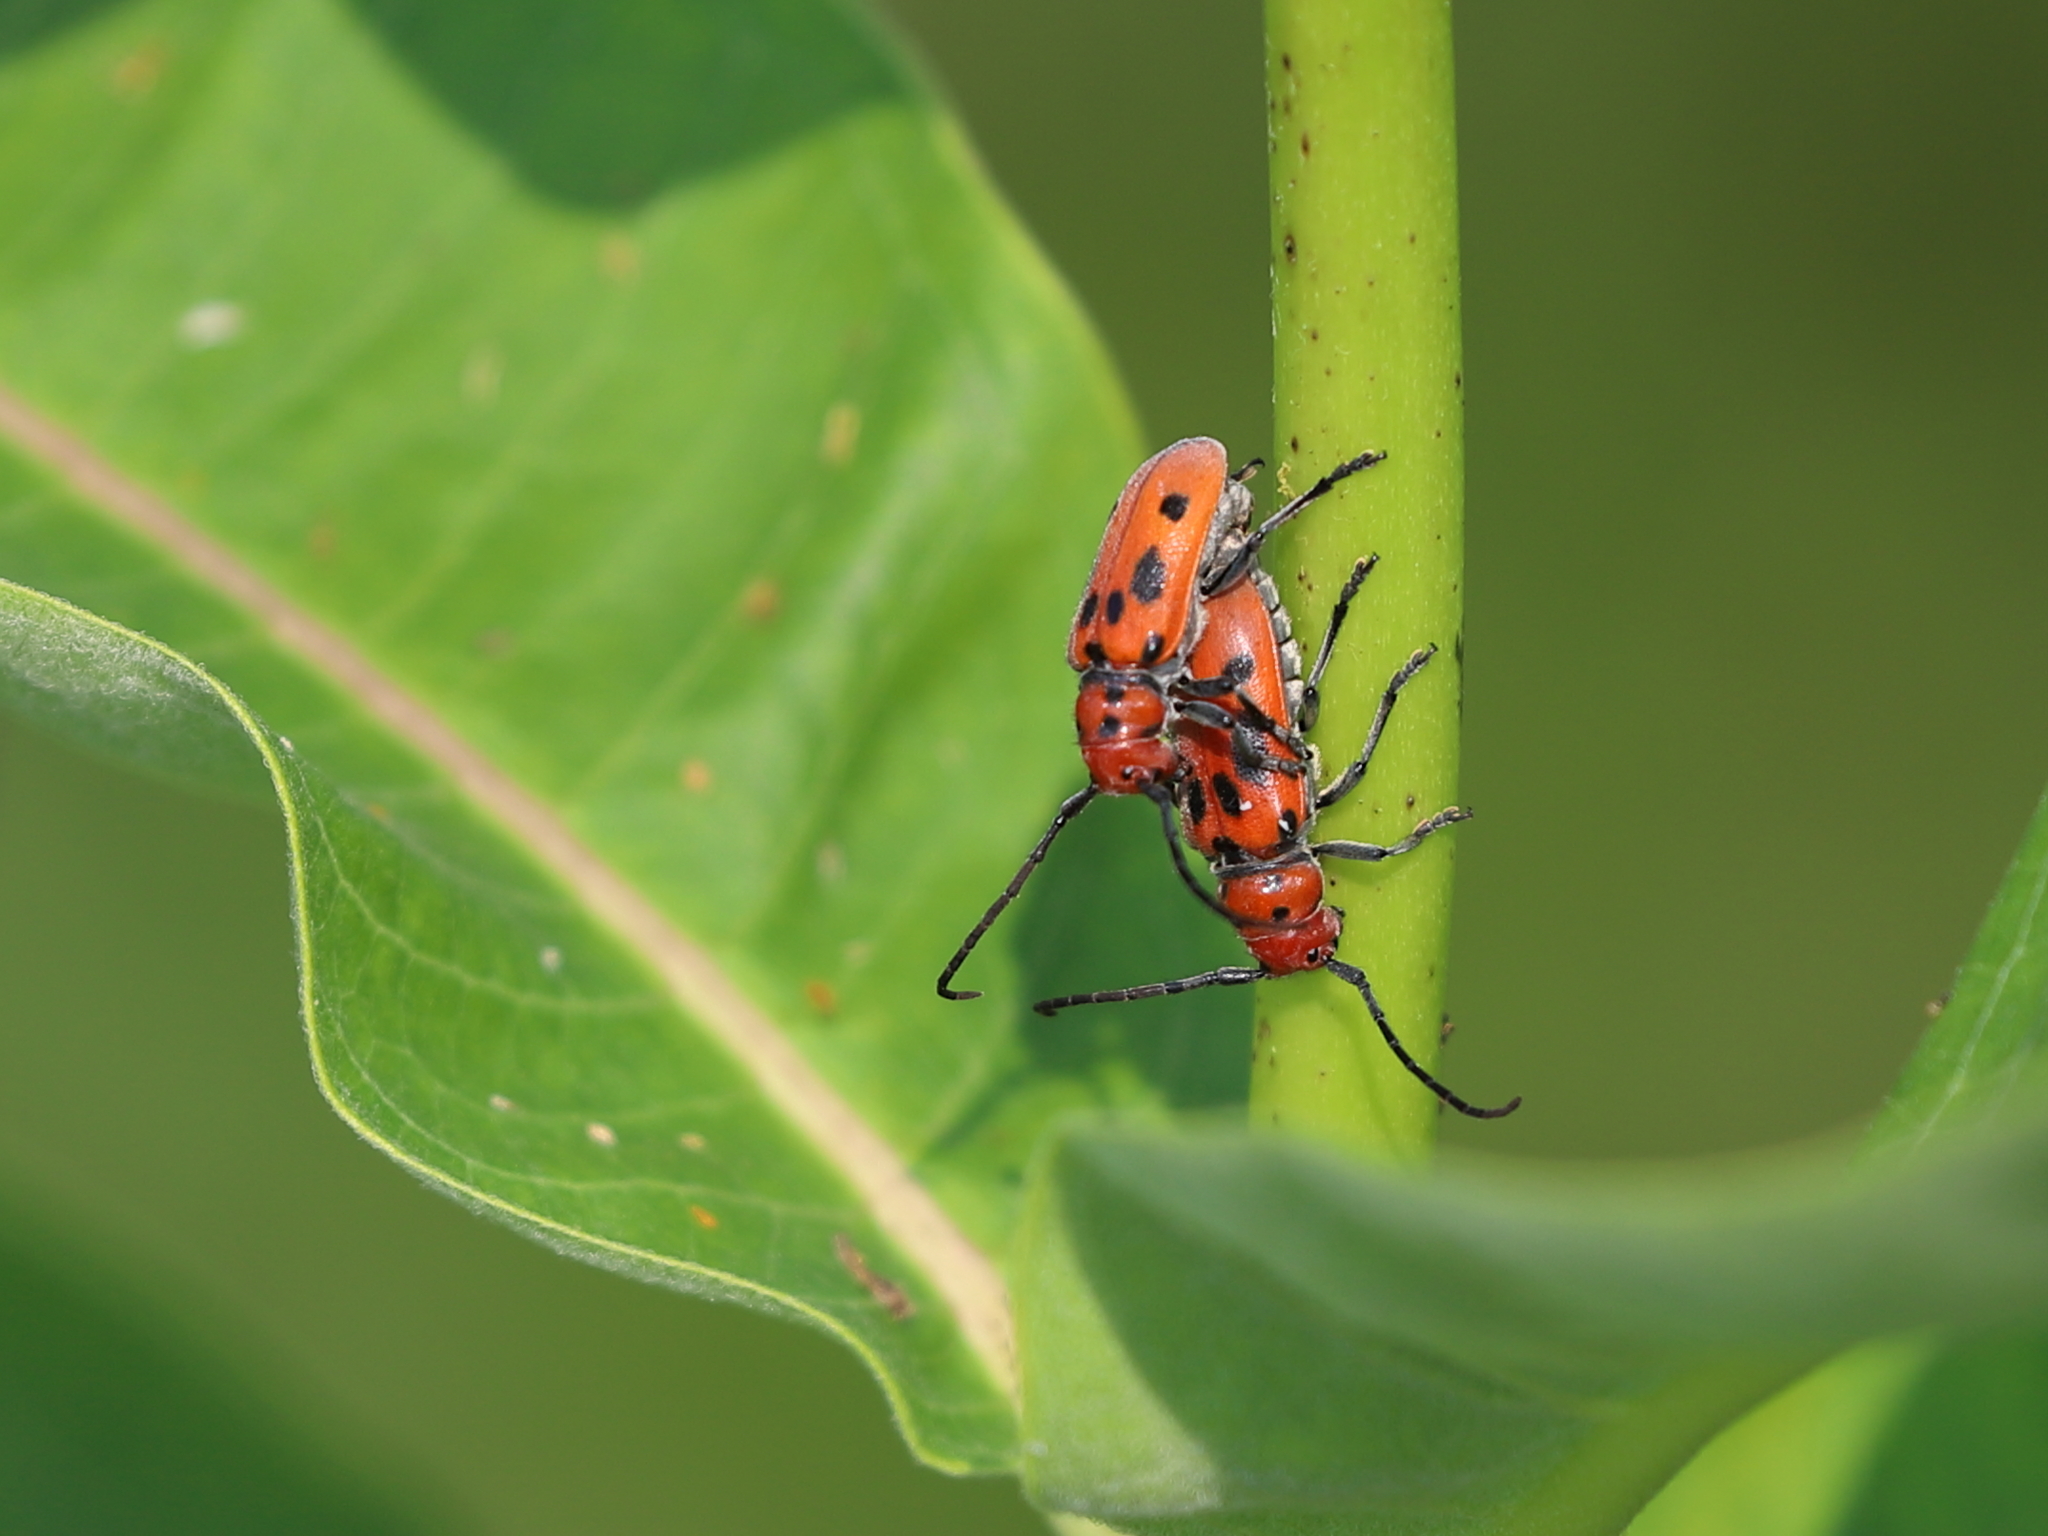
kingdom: Animalia
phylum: Arthropoda
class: Insecta
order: Coleoptera
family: Cerambycidae
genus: Tetraopes
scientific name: Tetraopes tetrophthalmus
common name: Red milkweed beetle
